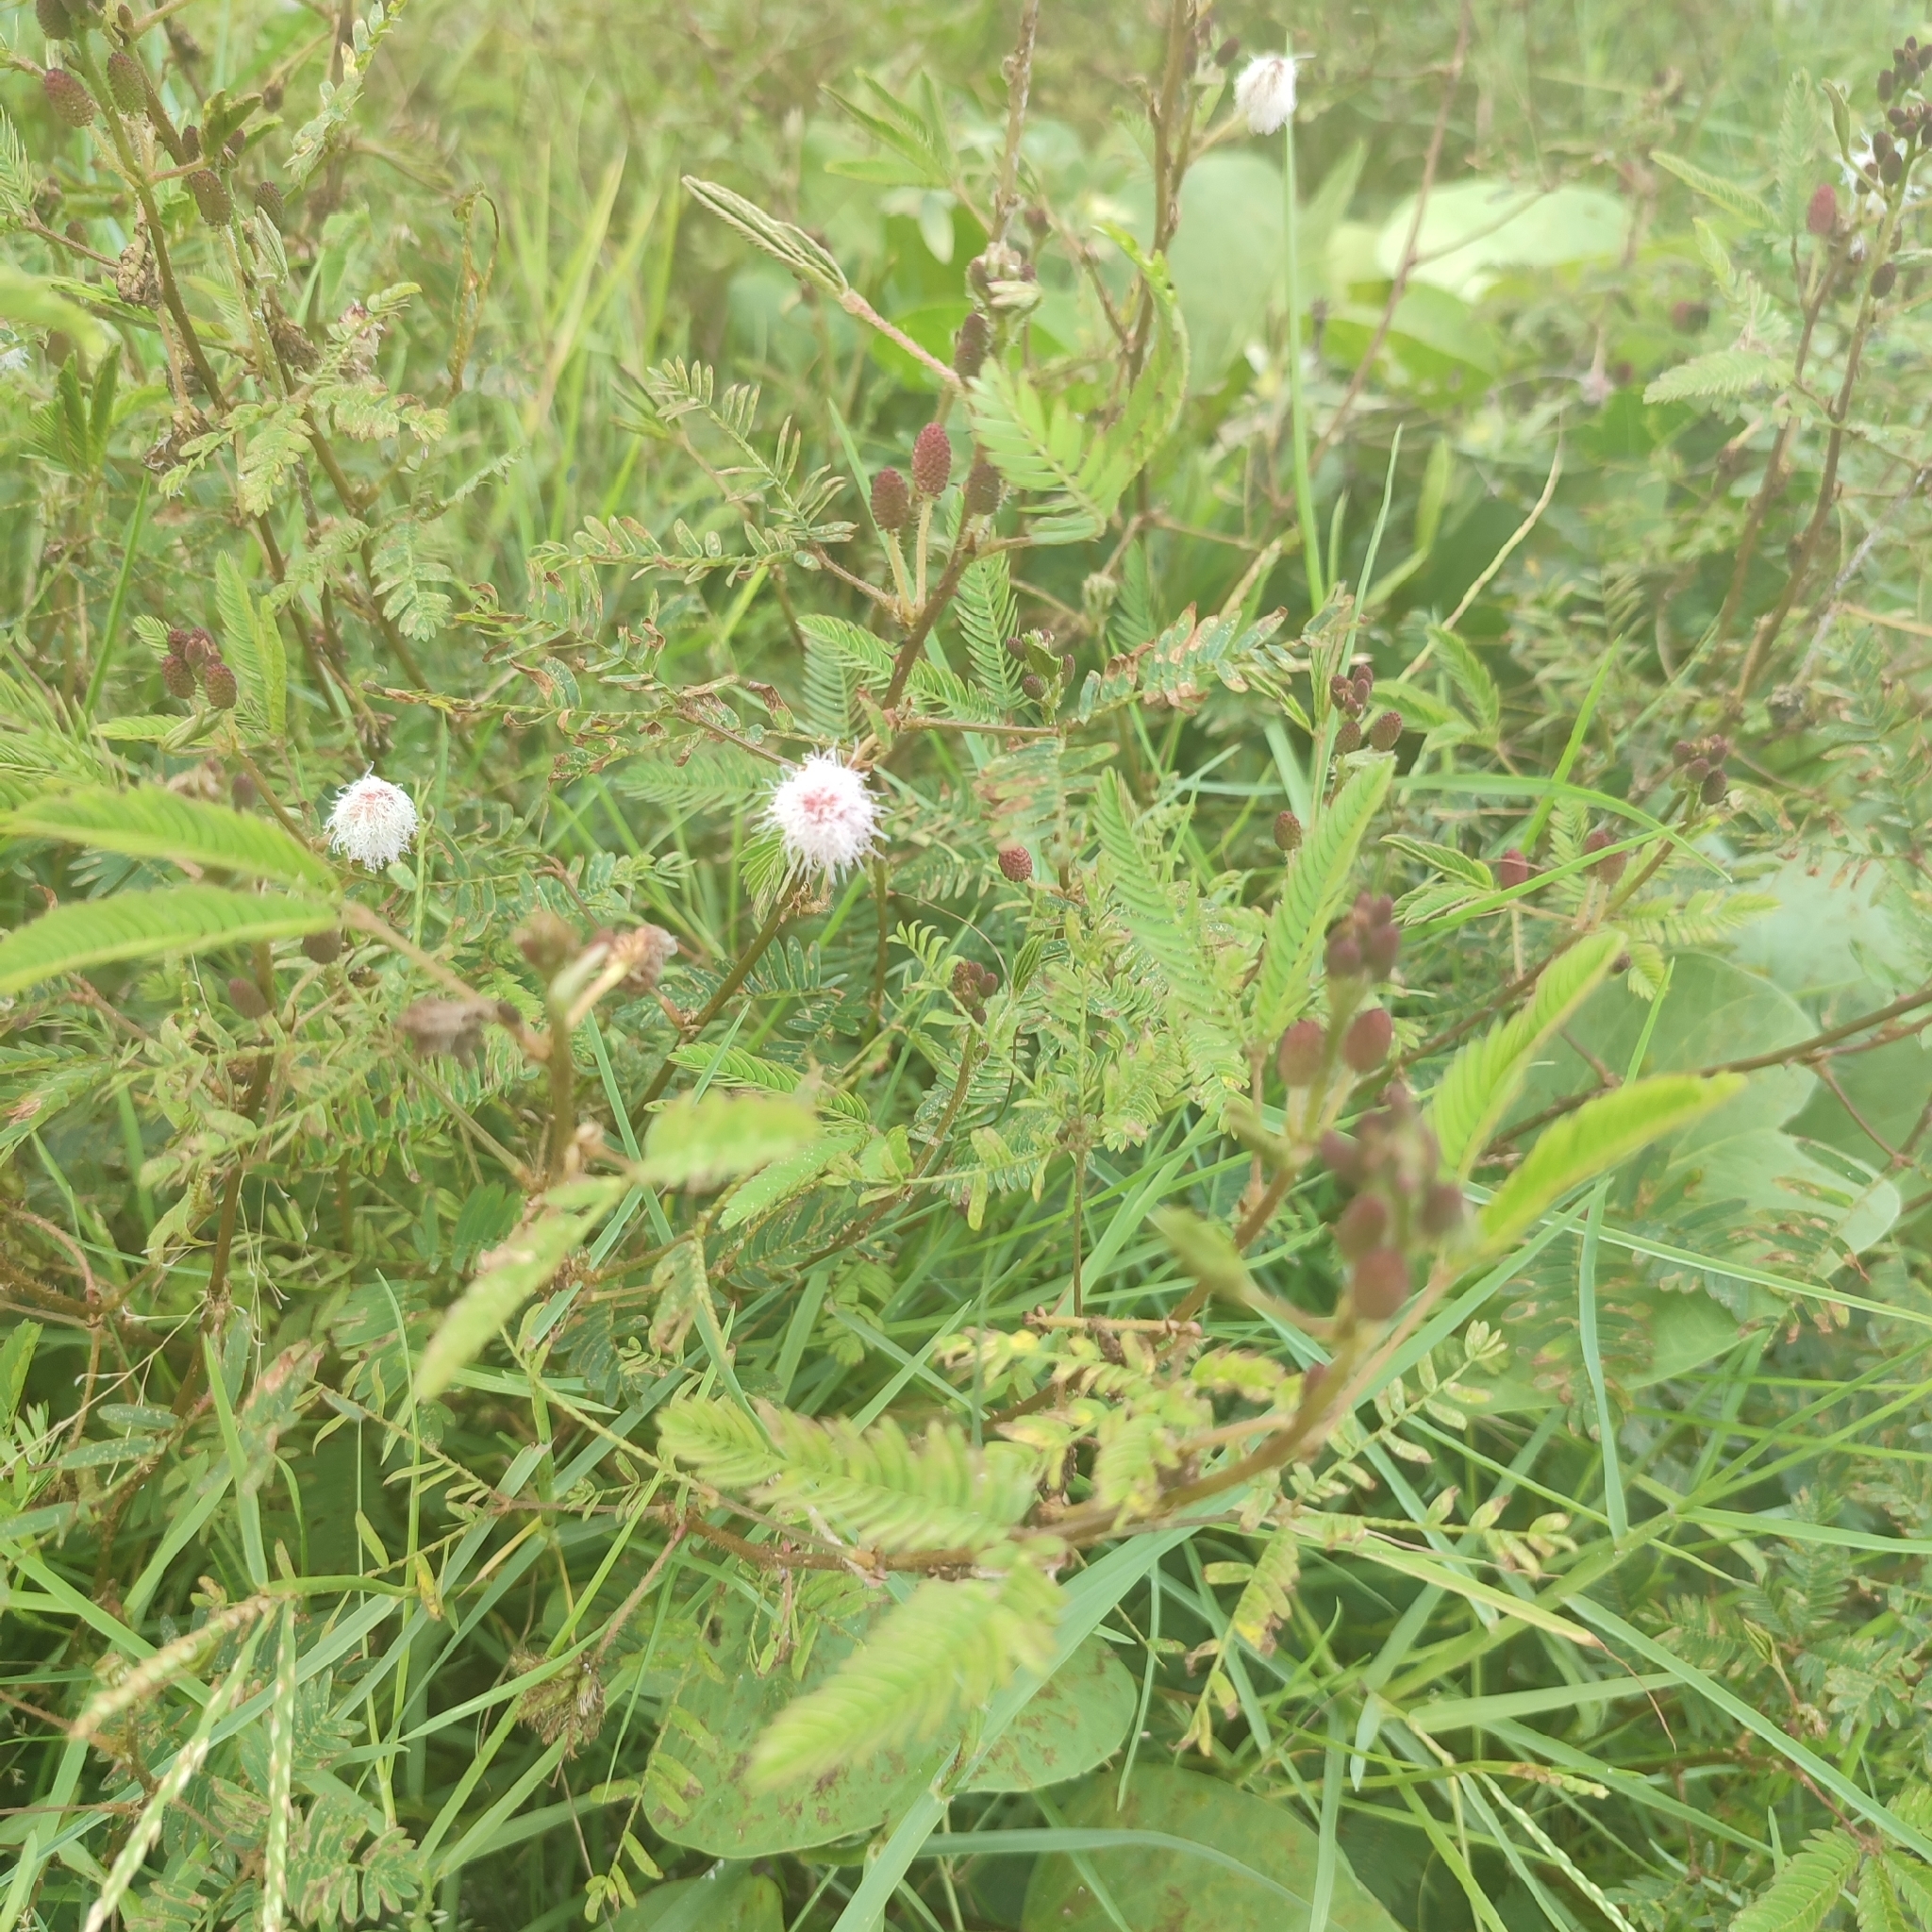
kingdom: Plantae
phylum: Tracheophyta
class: Magnoliopsida
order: Fabales
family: Fabaceae
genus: Mimosa
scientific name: Mimosa pudica
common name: Sensitive plant
